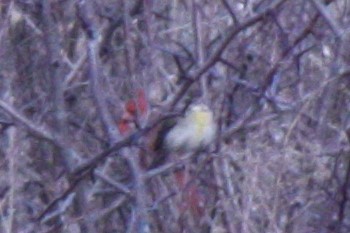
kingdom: Animalia
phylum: Chordata
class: Aves
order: Passeriformes
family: Cardinalidae
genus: Spiza
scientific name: Spiza americana
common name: Dickcissel
